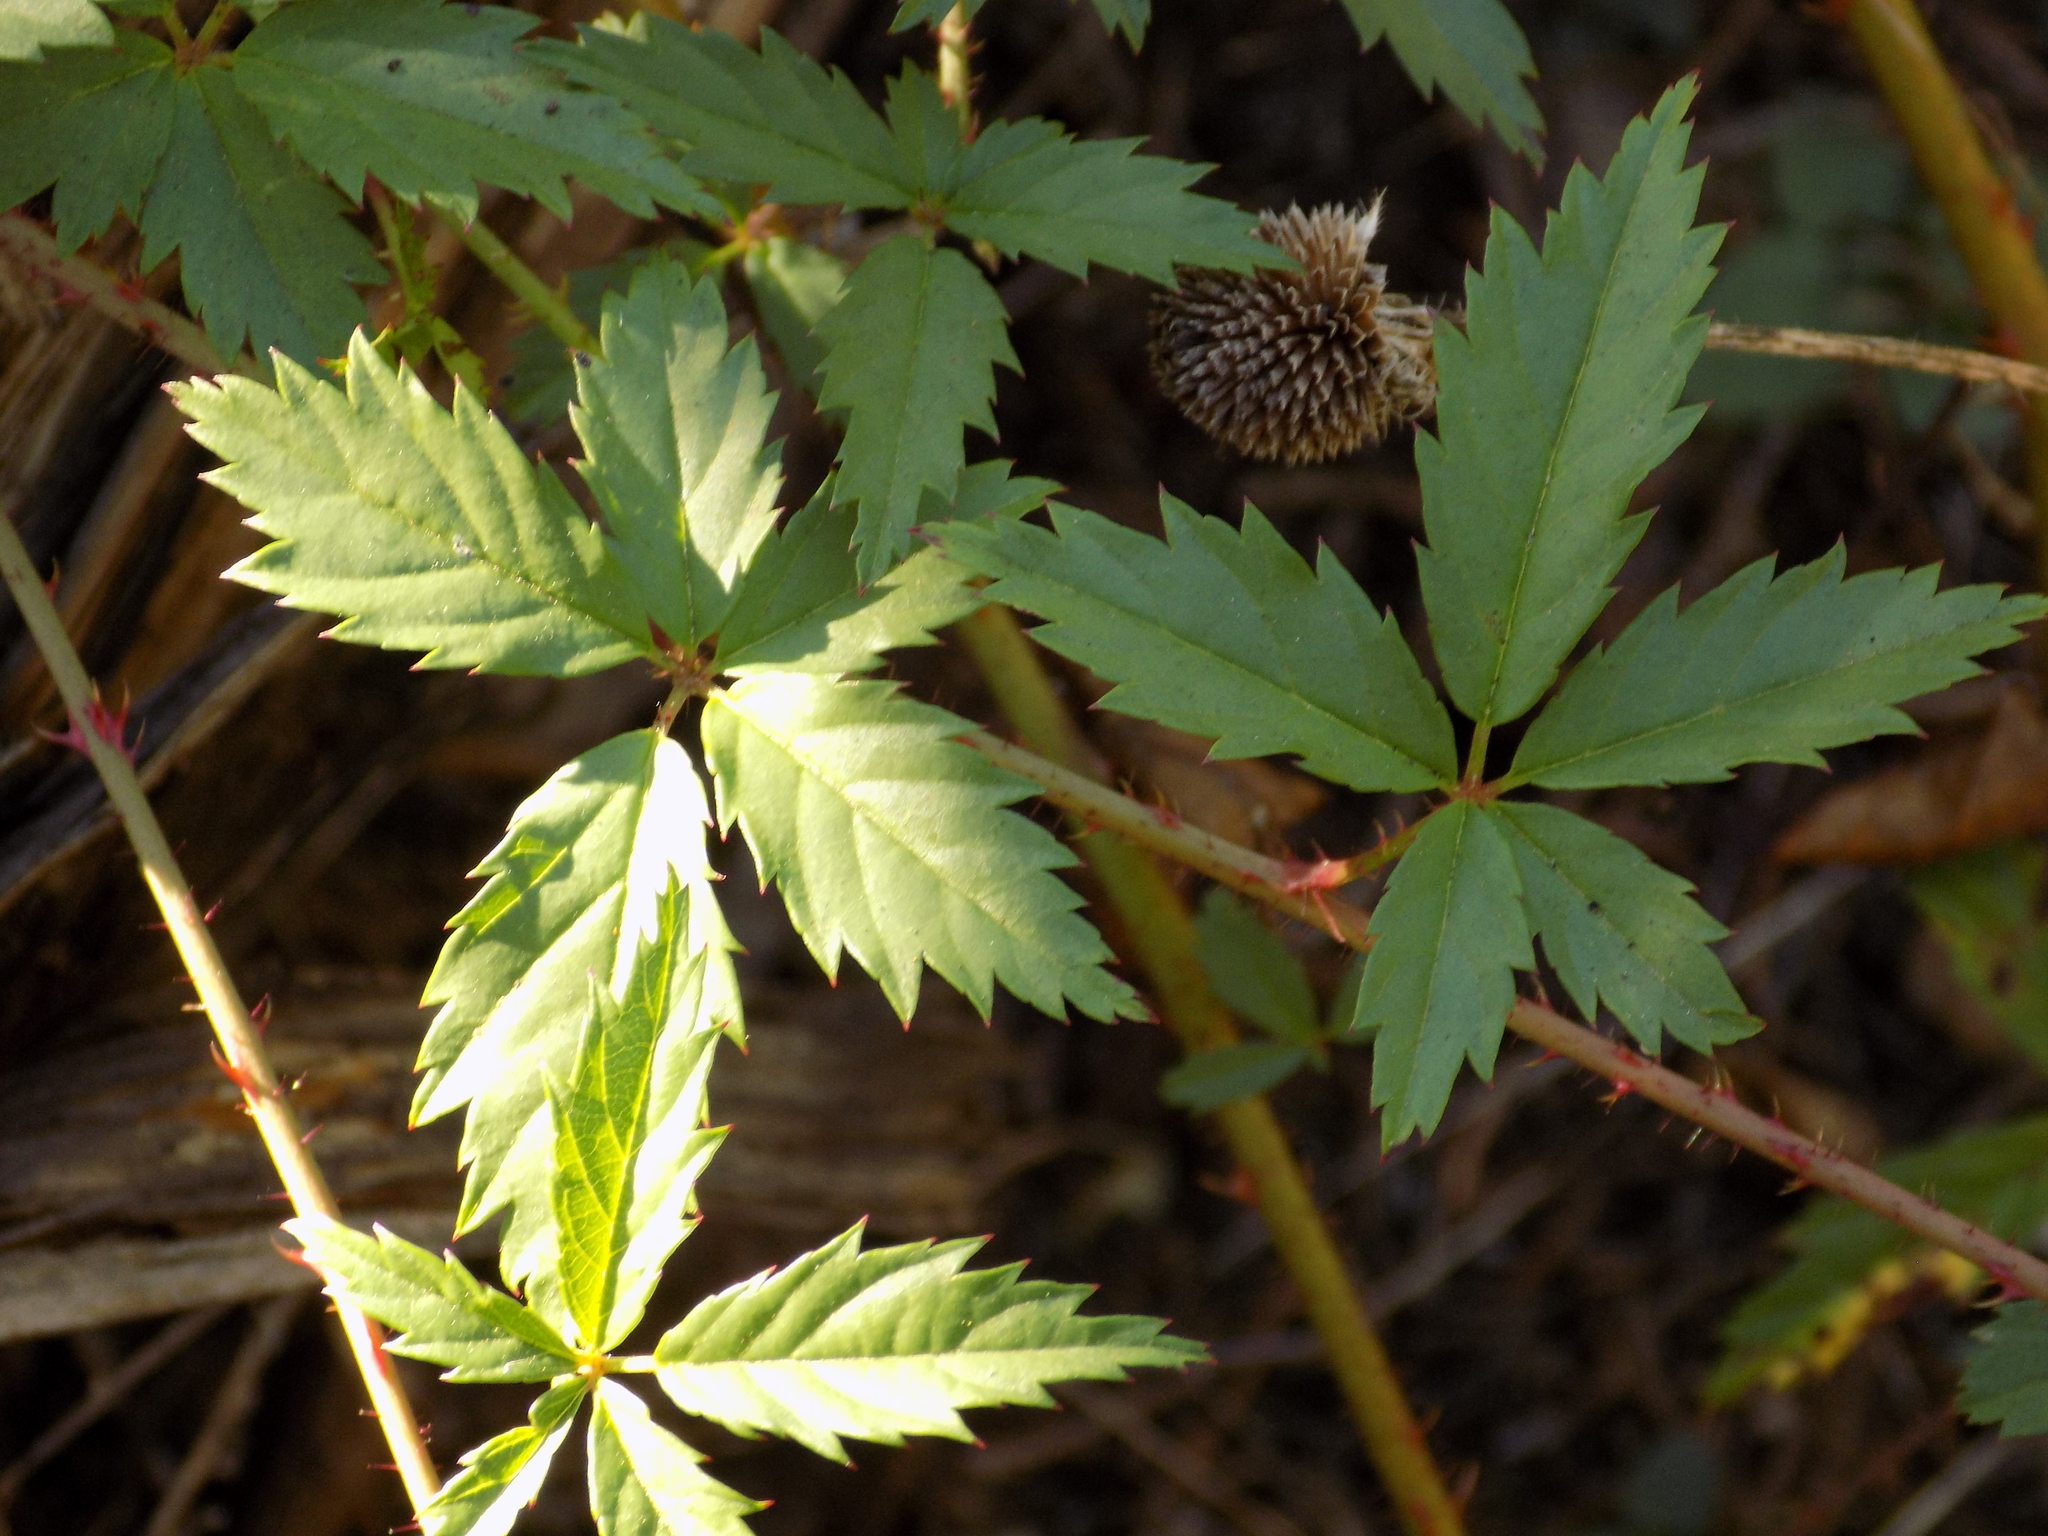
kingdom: Plantae
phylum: Tracheophyta
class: Magnoliopsida
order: Rosales
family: Rosaceae
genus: Rubus
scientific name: Rubus trivialis
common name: Southern dewberry
